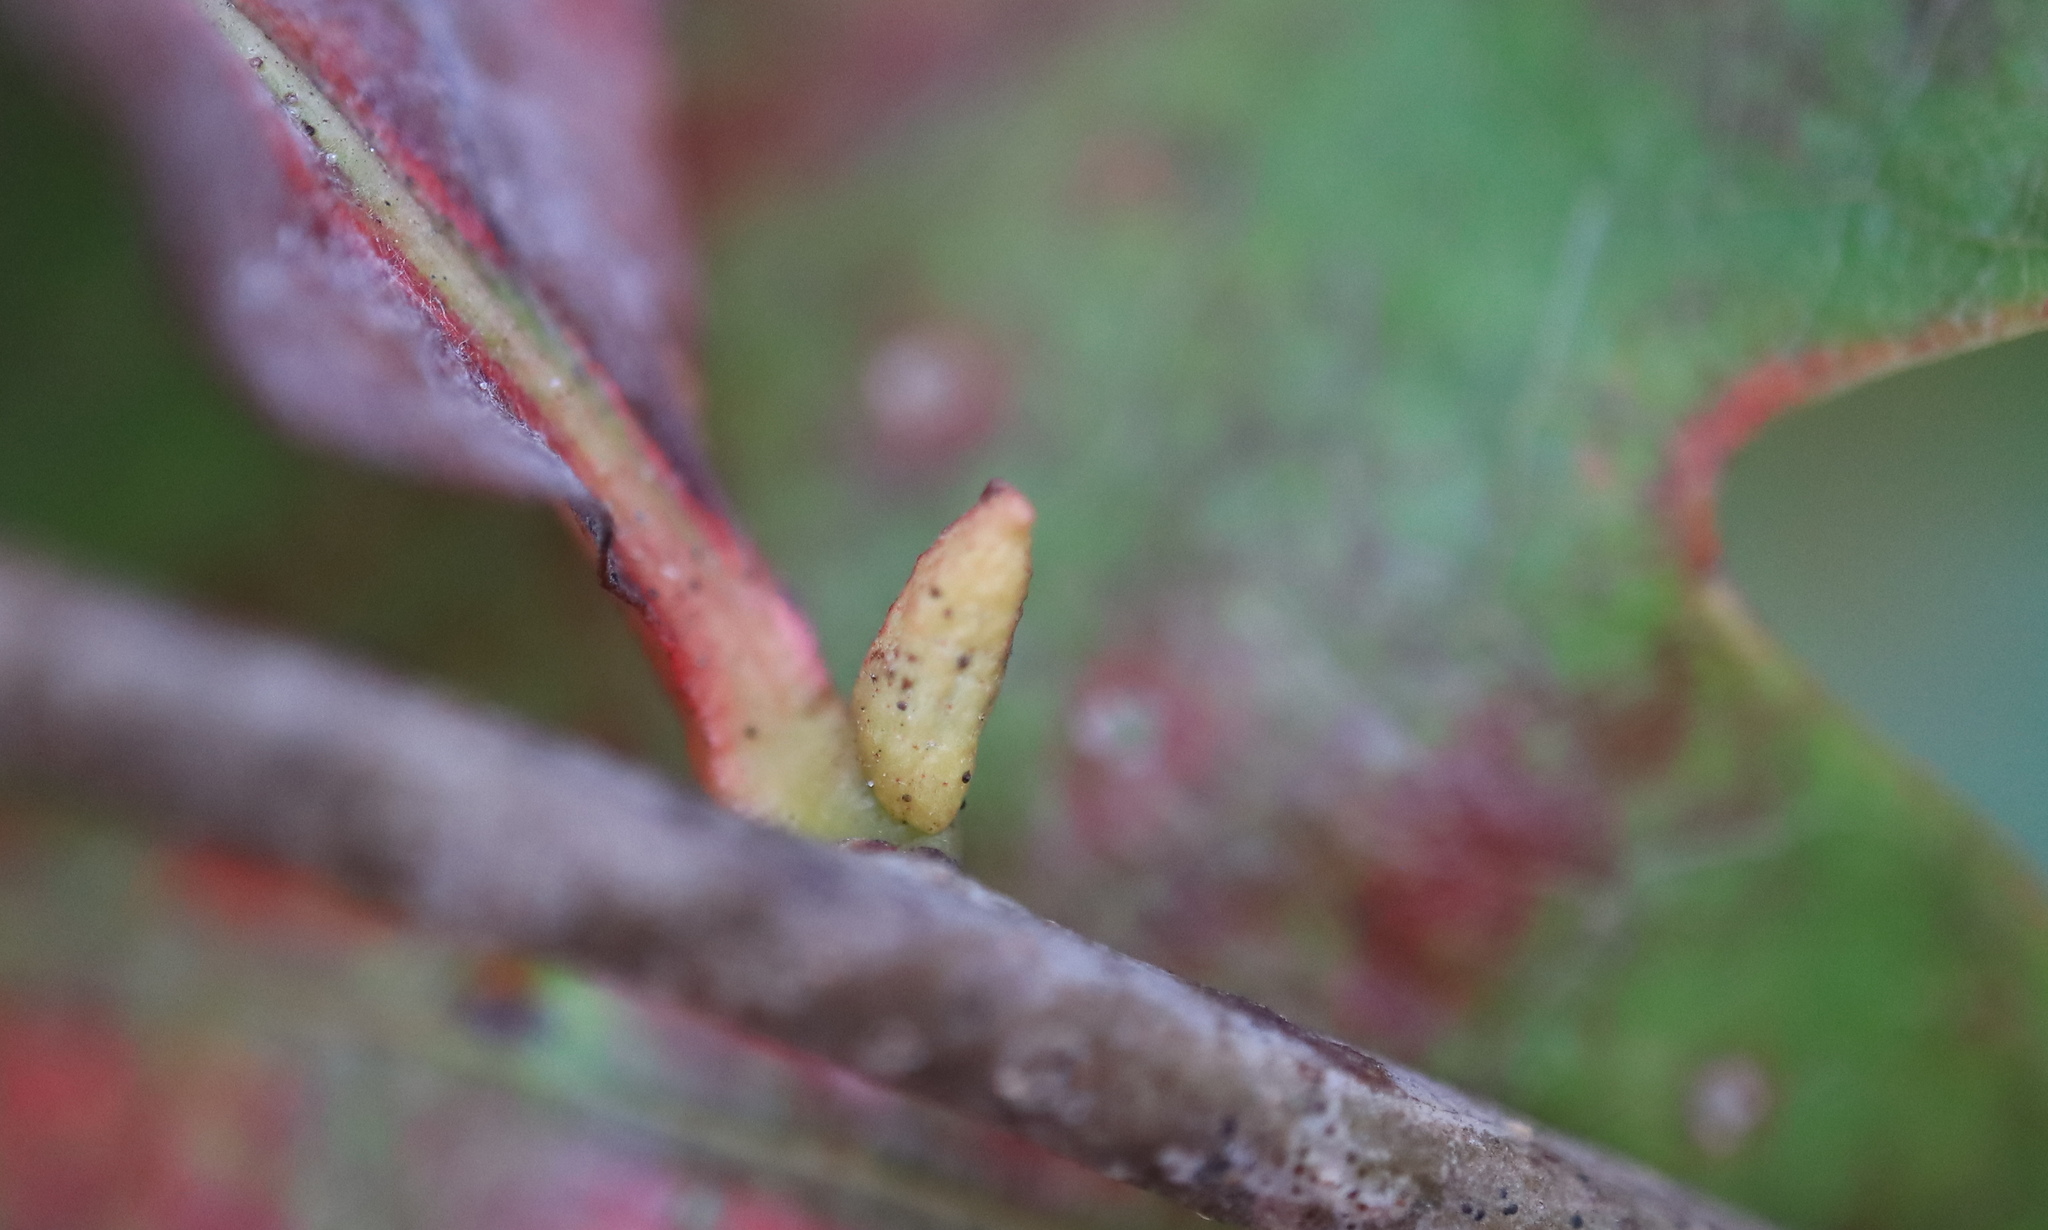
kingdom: Animalia
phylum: Arthropoda
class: Insecta
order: Hymenoptera
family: Cynipidae
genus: Zopheroteras
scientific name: Zopheroteras
